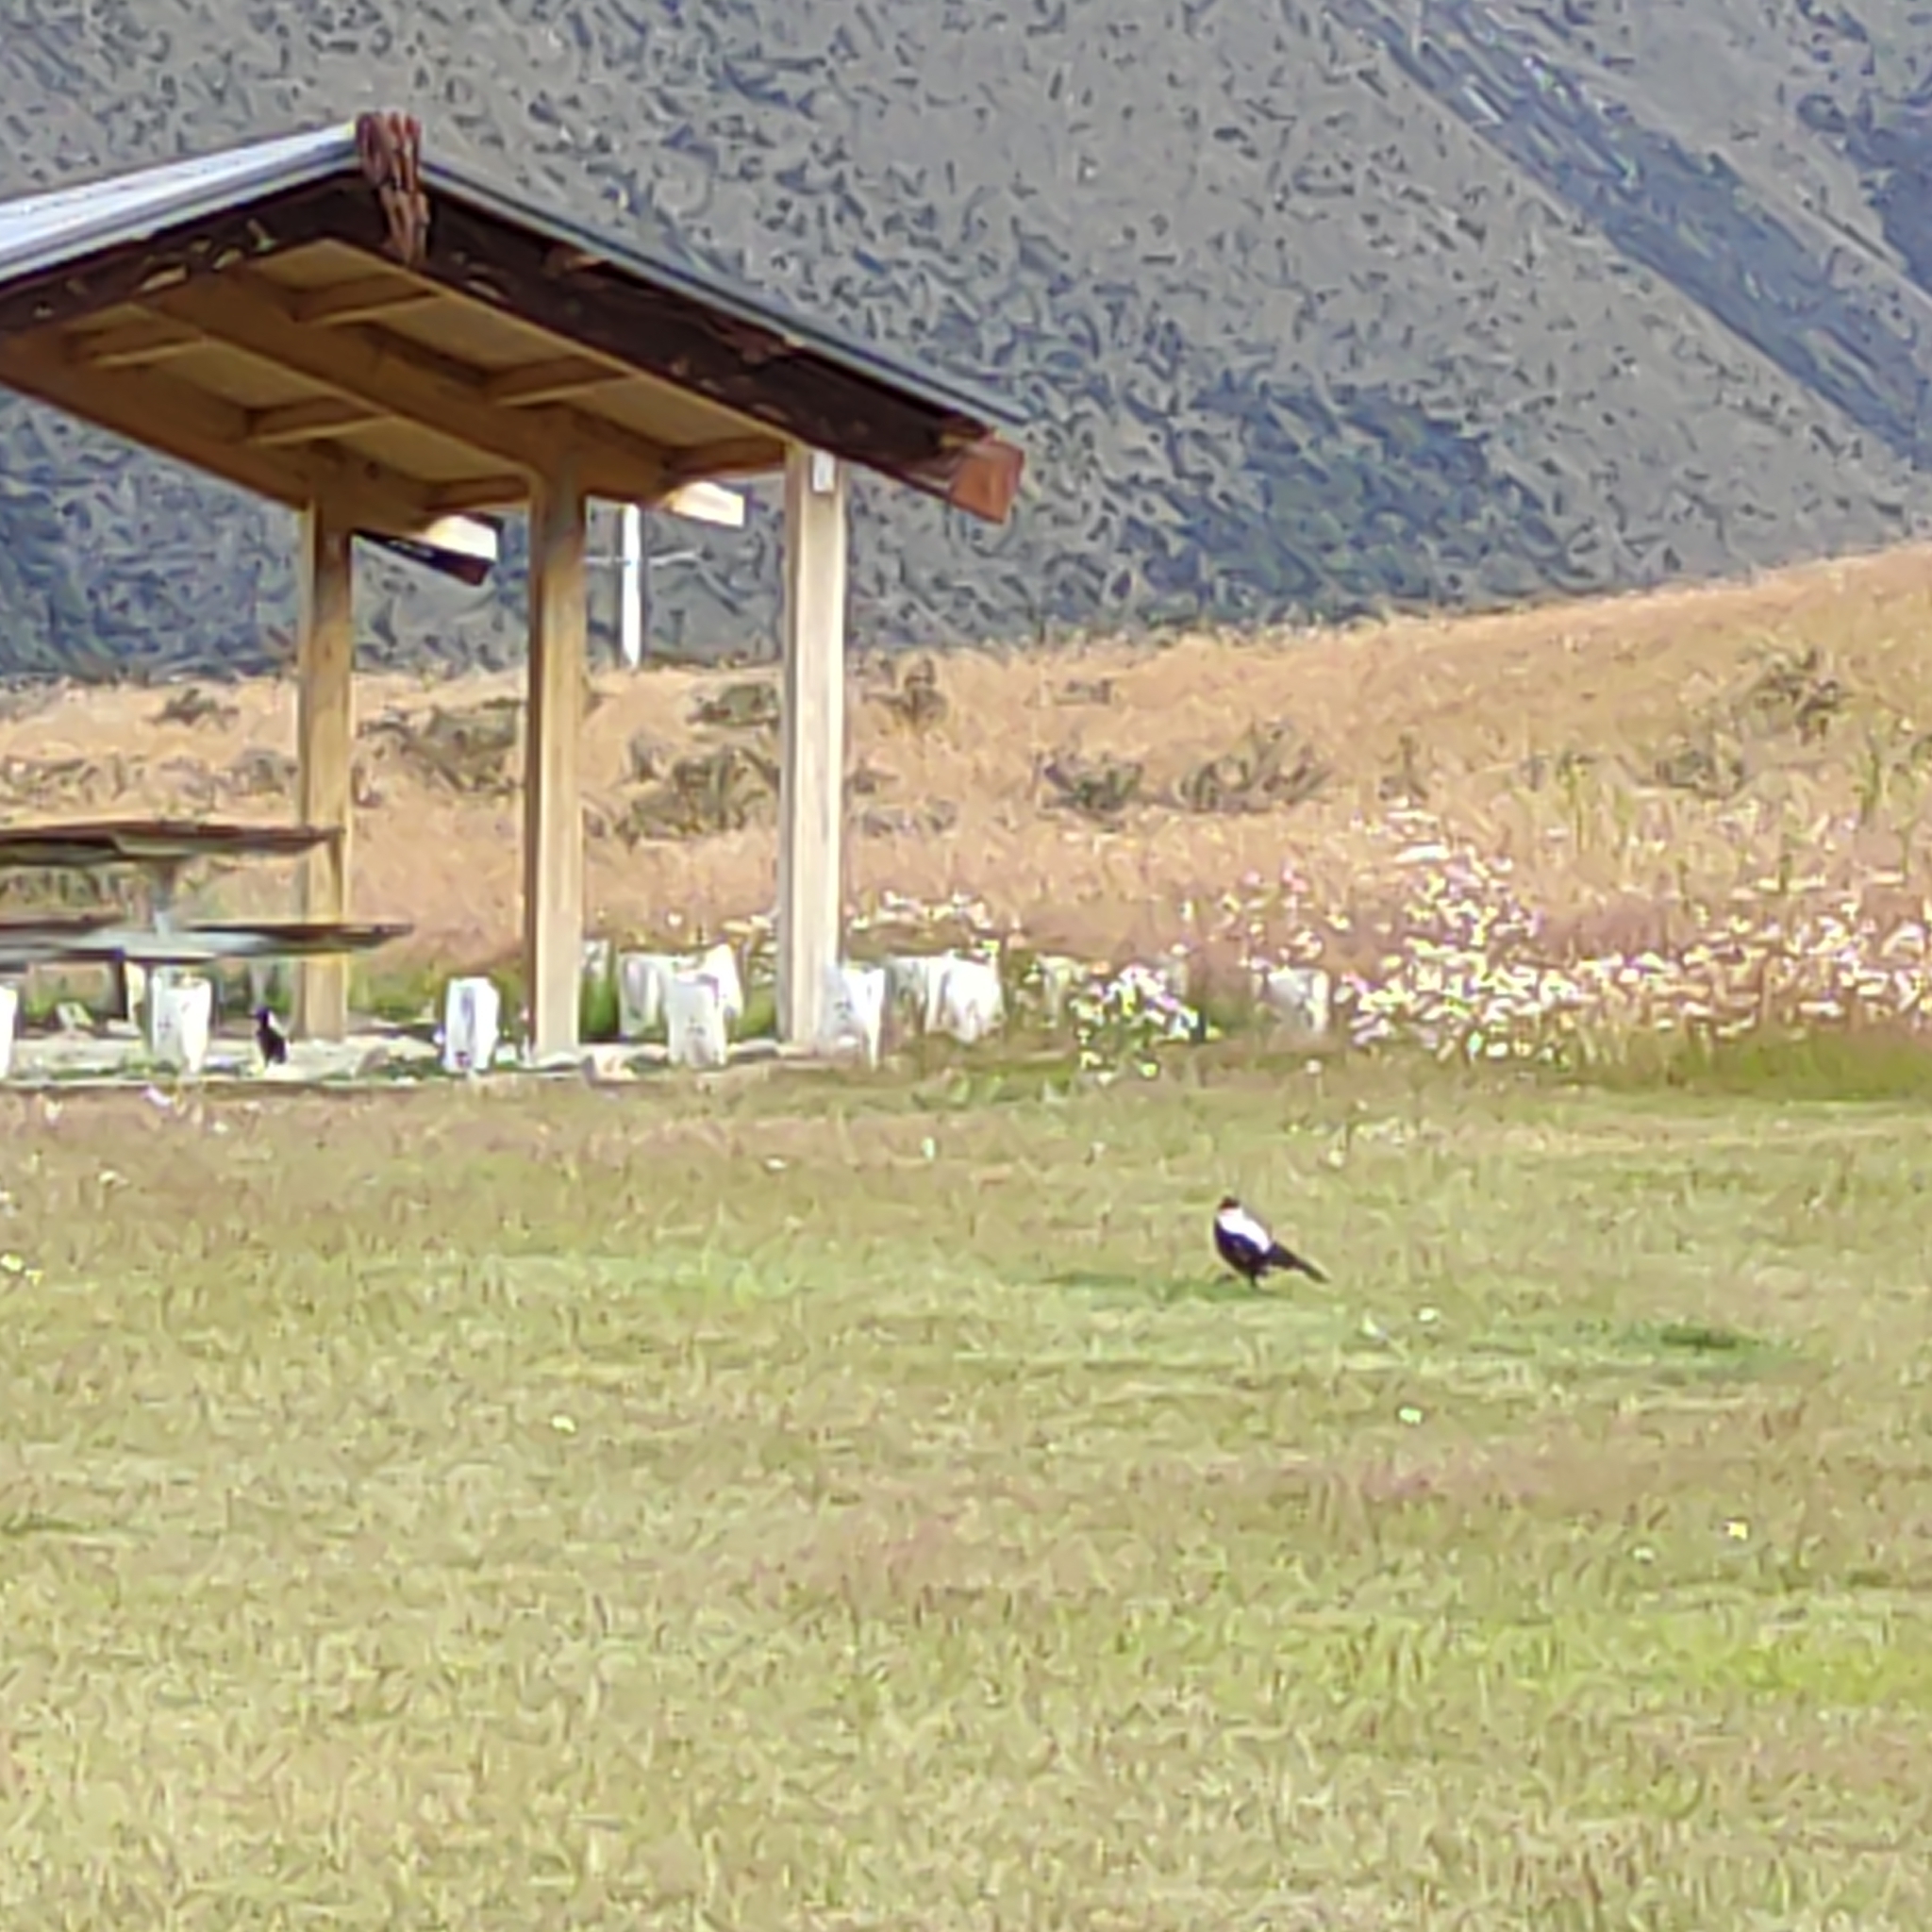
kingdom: Animalia
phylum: Chordata
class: Aves
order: Passeriformes
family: Cracticidae
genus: Gymnorhina
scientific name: Gymnorhina tibicen
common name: Australian magpie
